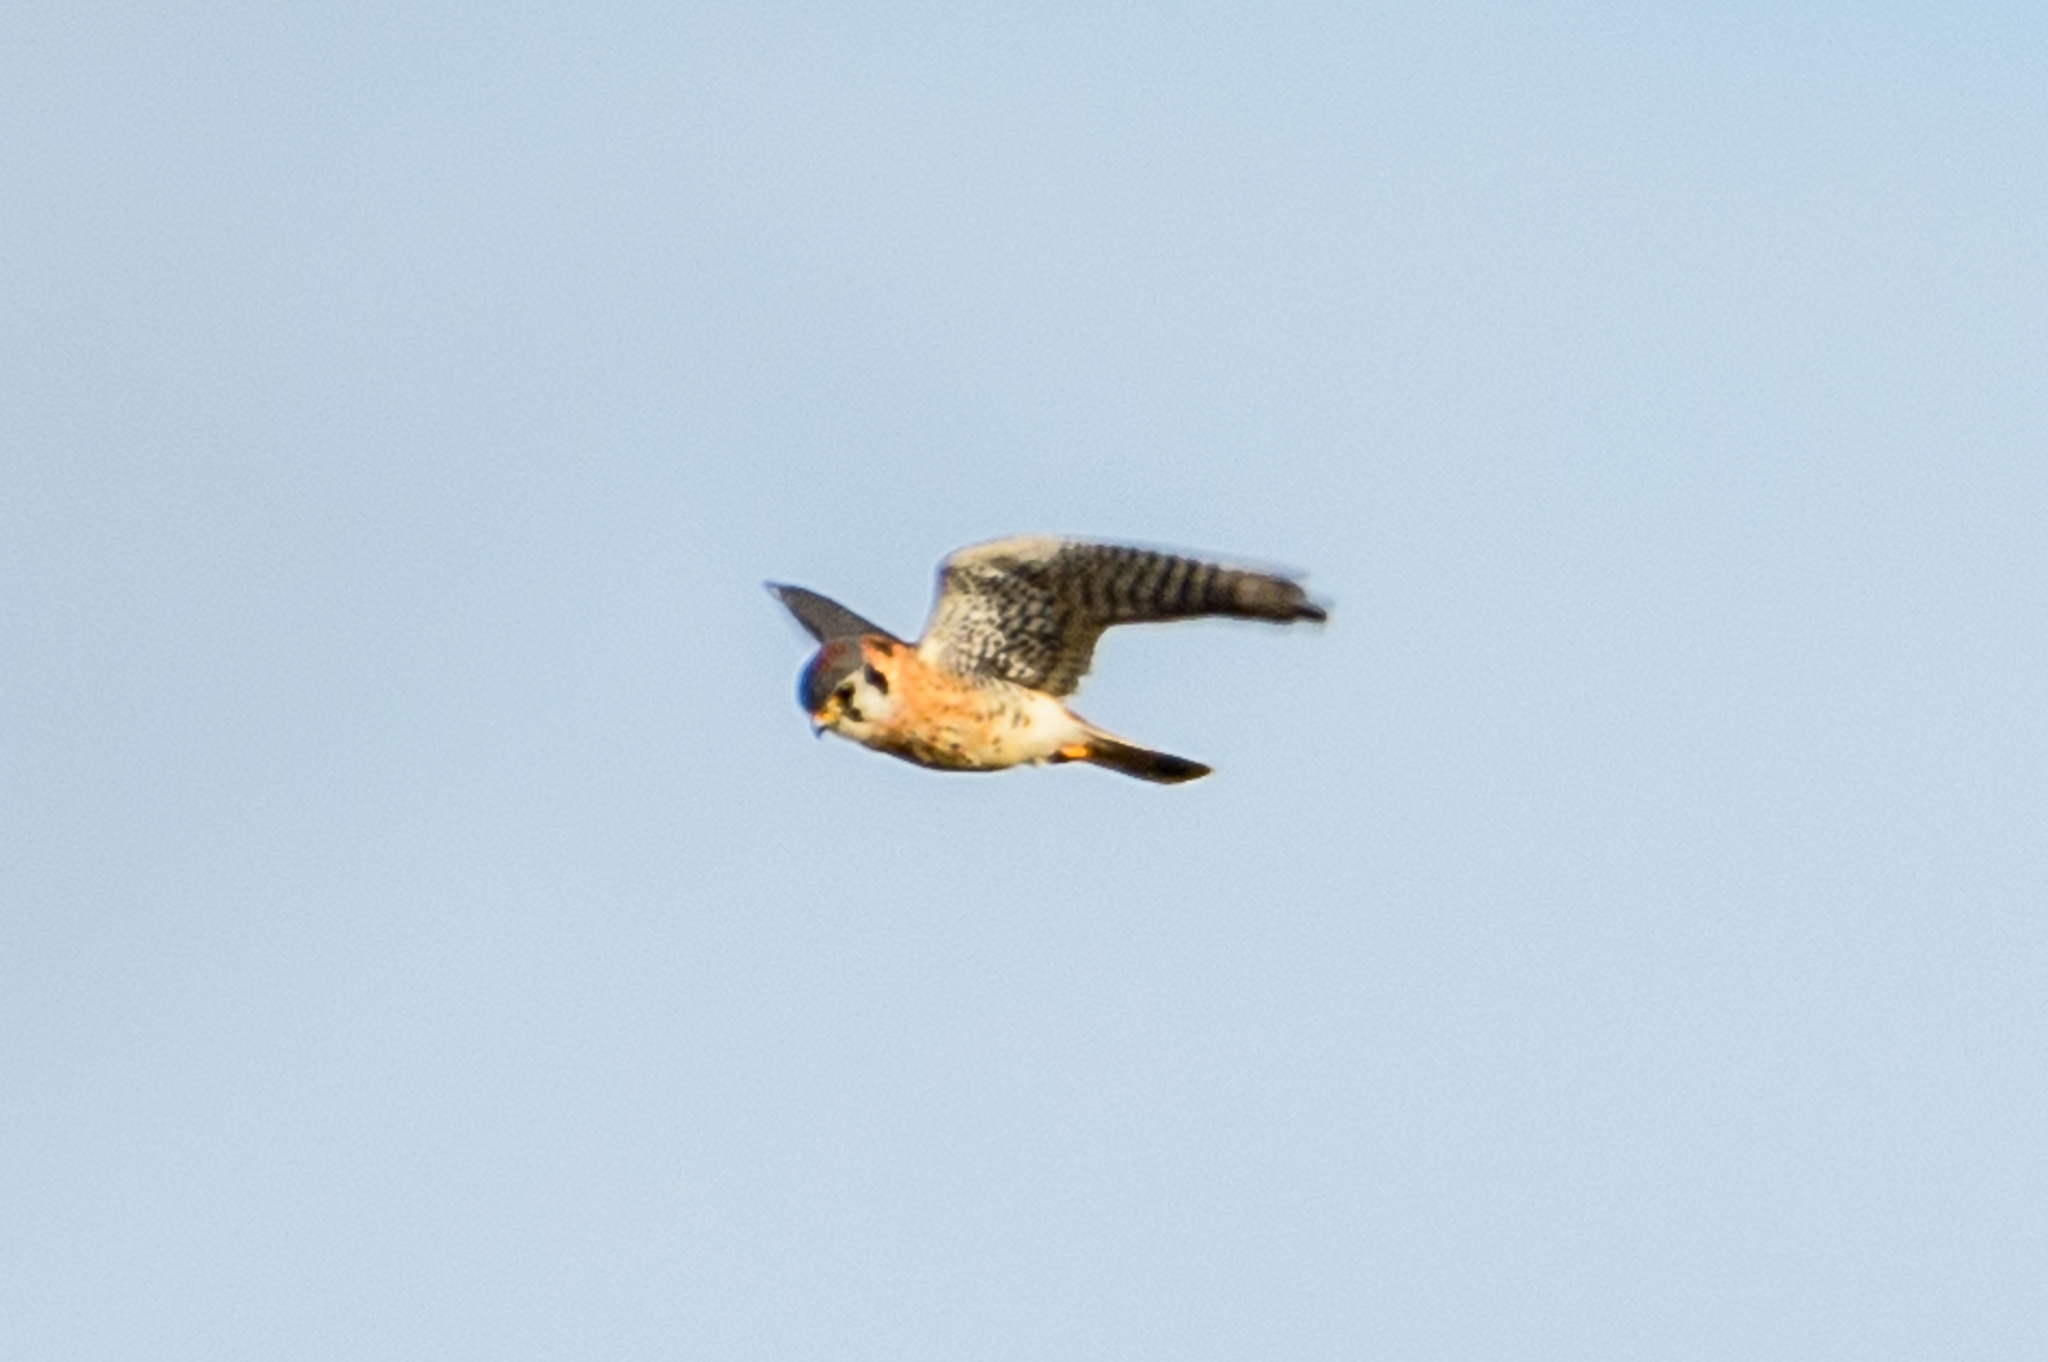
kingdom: Animalia
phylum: Chordata
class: Aves
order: Falconiformes
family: Falconidae
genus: Falco
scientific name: Falco sparverius
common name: American kestrel
